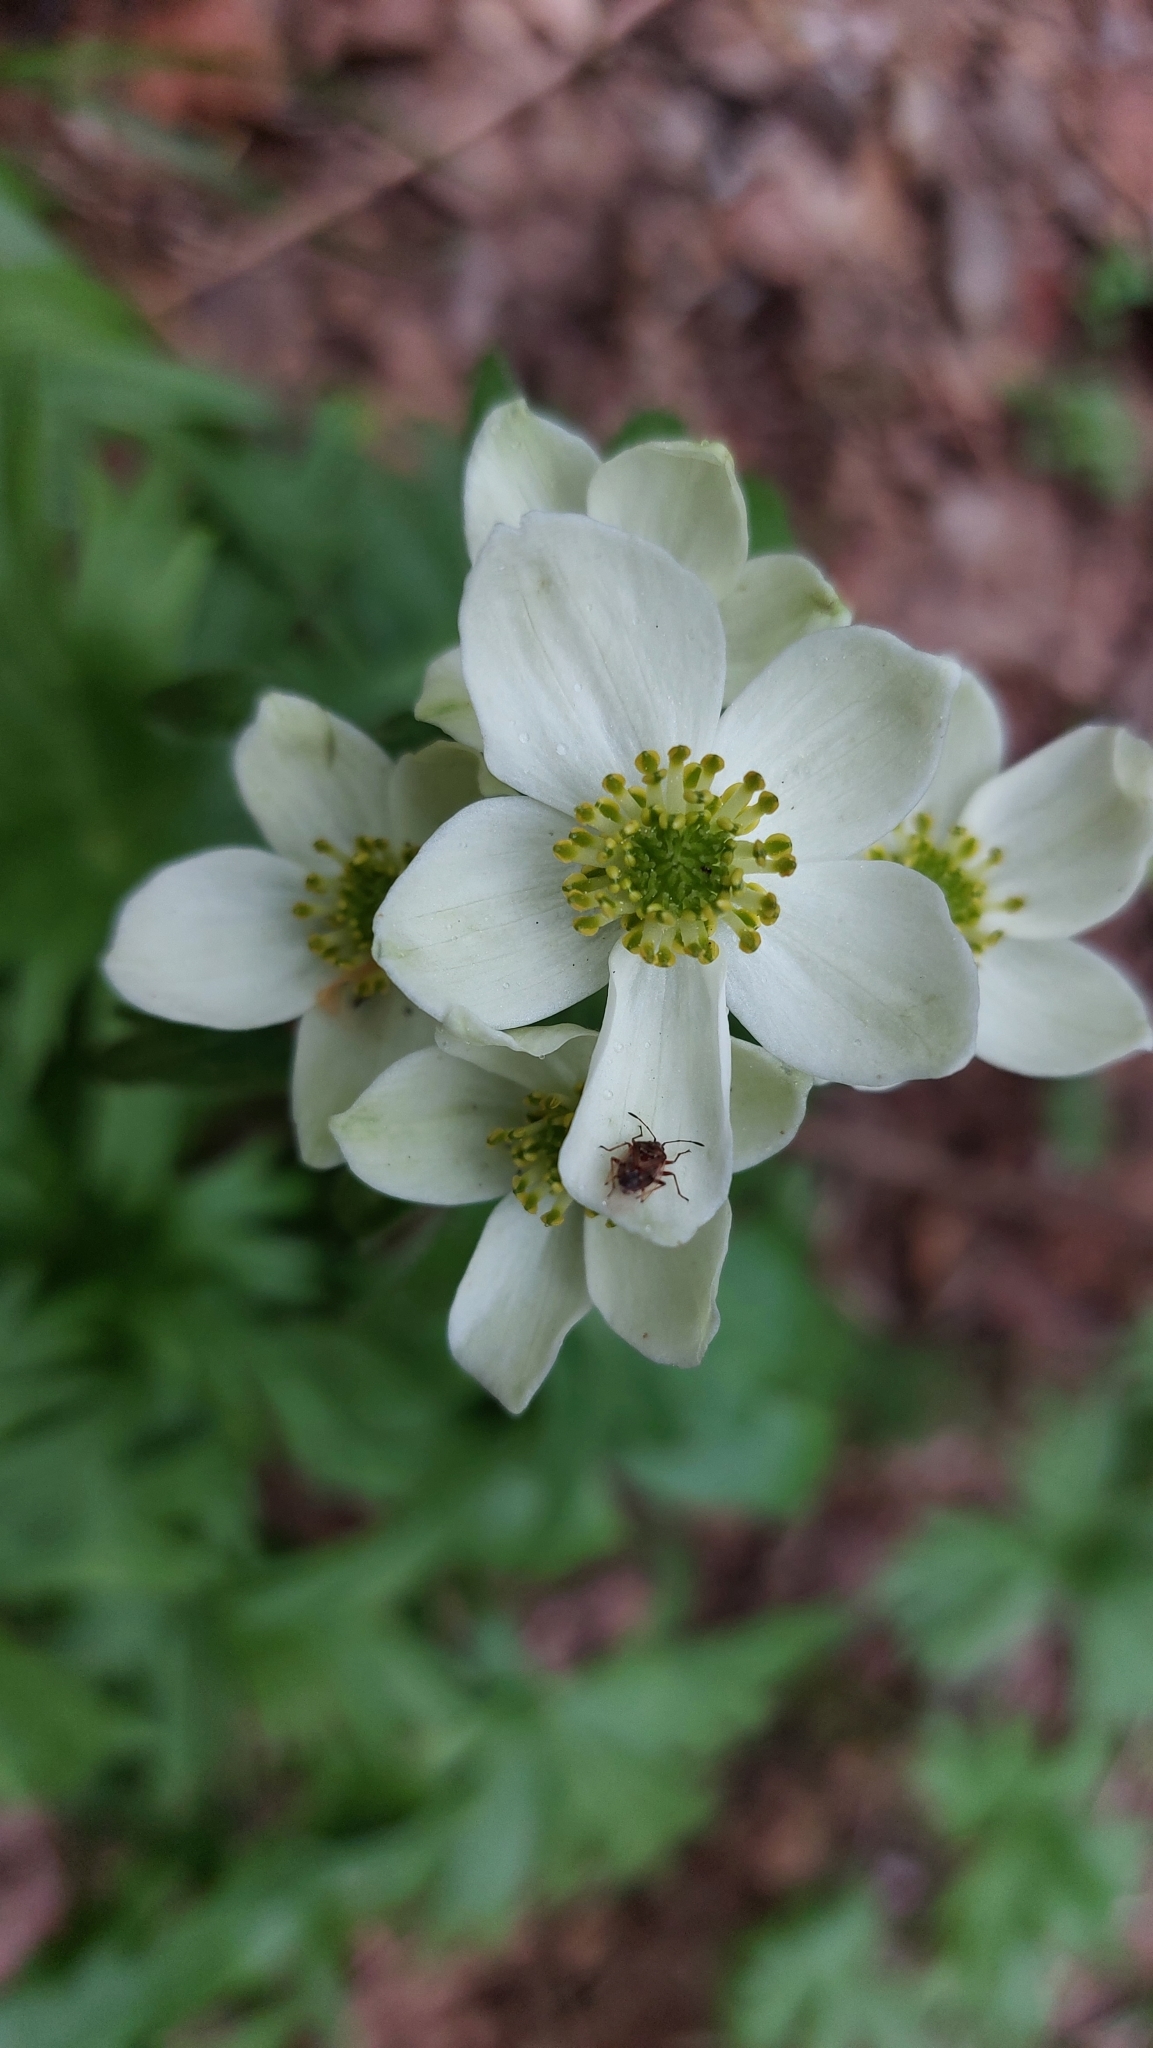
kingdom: Plantae
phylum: Tracheophyta
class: Magnoliopsida
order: Ranunculales
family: Ranunculaceae
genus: Anemonastrum
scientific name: Anemonastrum biarmiense
